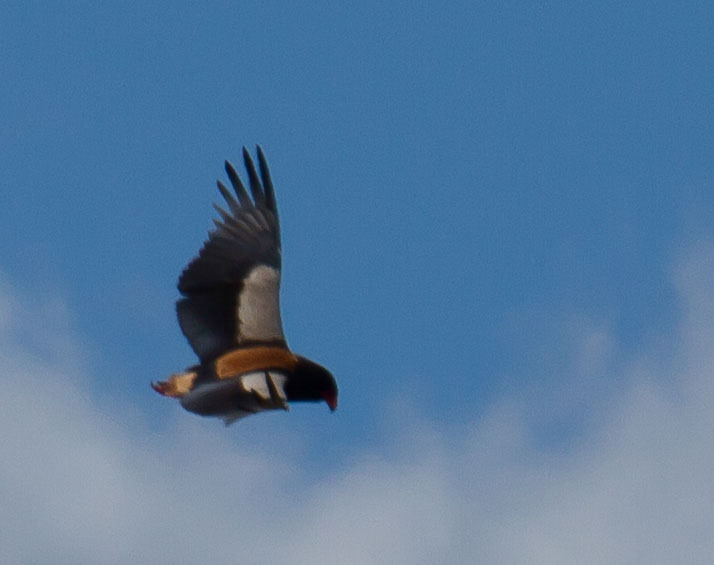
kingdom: Animalia
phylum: Chordata
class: Aves
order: Accipitriformes
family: Accipitridae
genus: Terathopius
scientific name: Terathopius ecaudatus
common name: Bateleur
